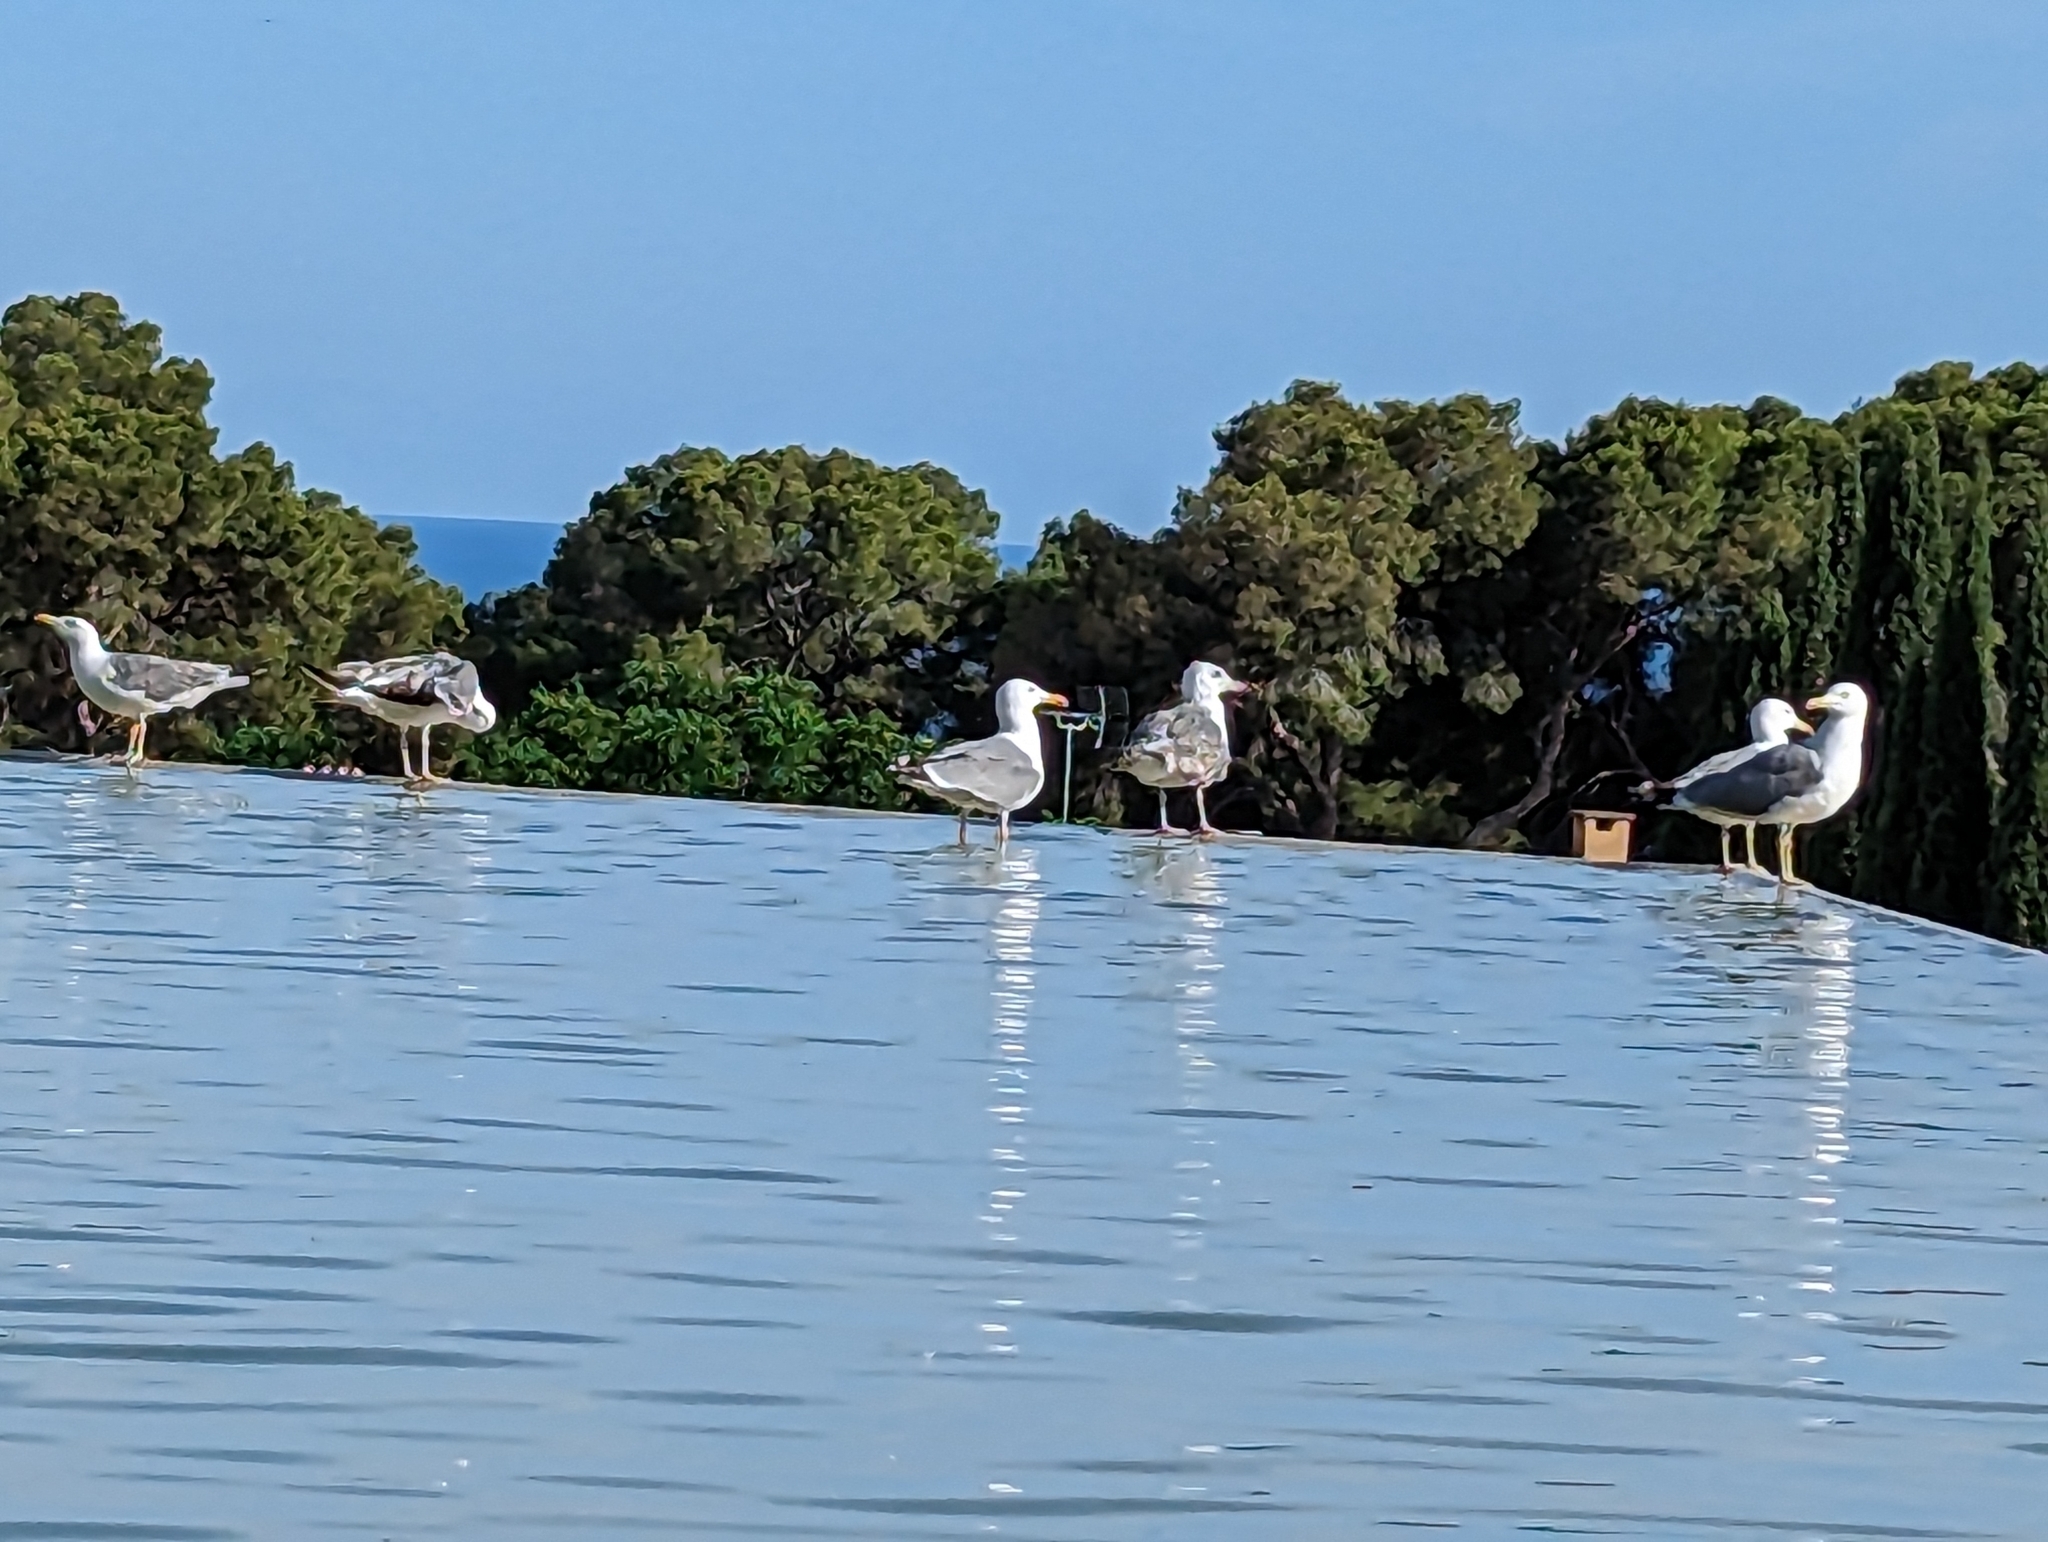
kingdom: Animalia
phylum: Chordata
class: Aves
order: Charadriiformes
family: Laridae
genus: Larus
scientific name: Larus michahellis
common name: Yellow-legged gull
